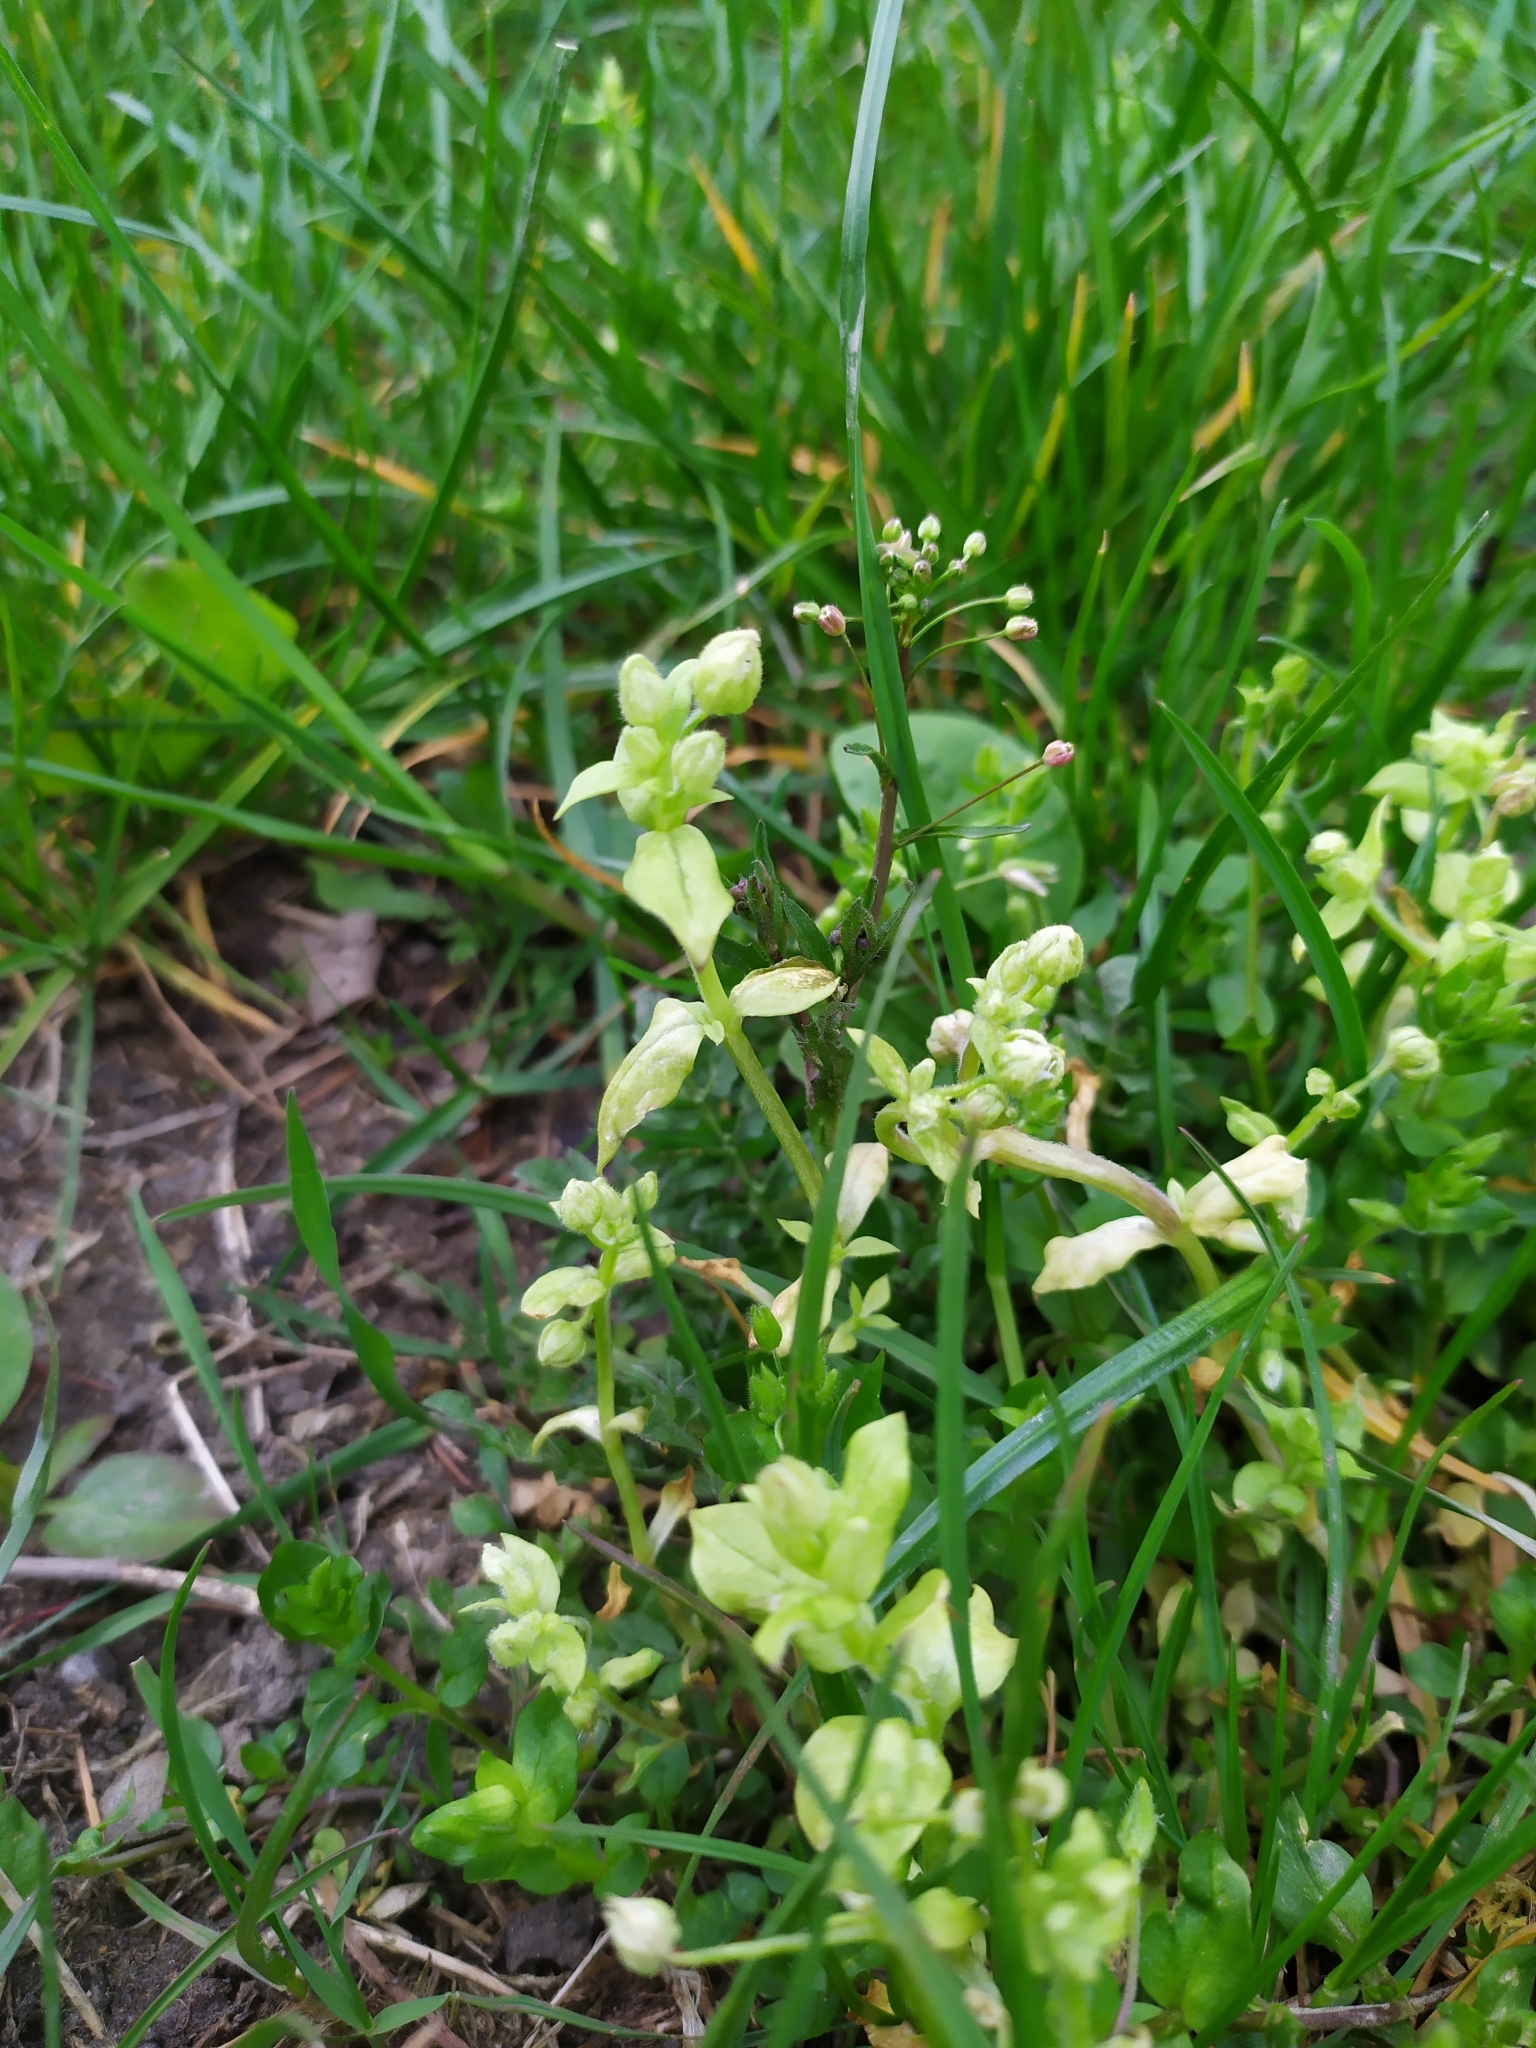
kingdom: Chromista
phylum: Oomycota
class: Peronosporea
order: Peronosporales
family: Peronosporaceae
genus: Peronospora
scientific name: Peronospora alsinearum
